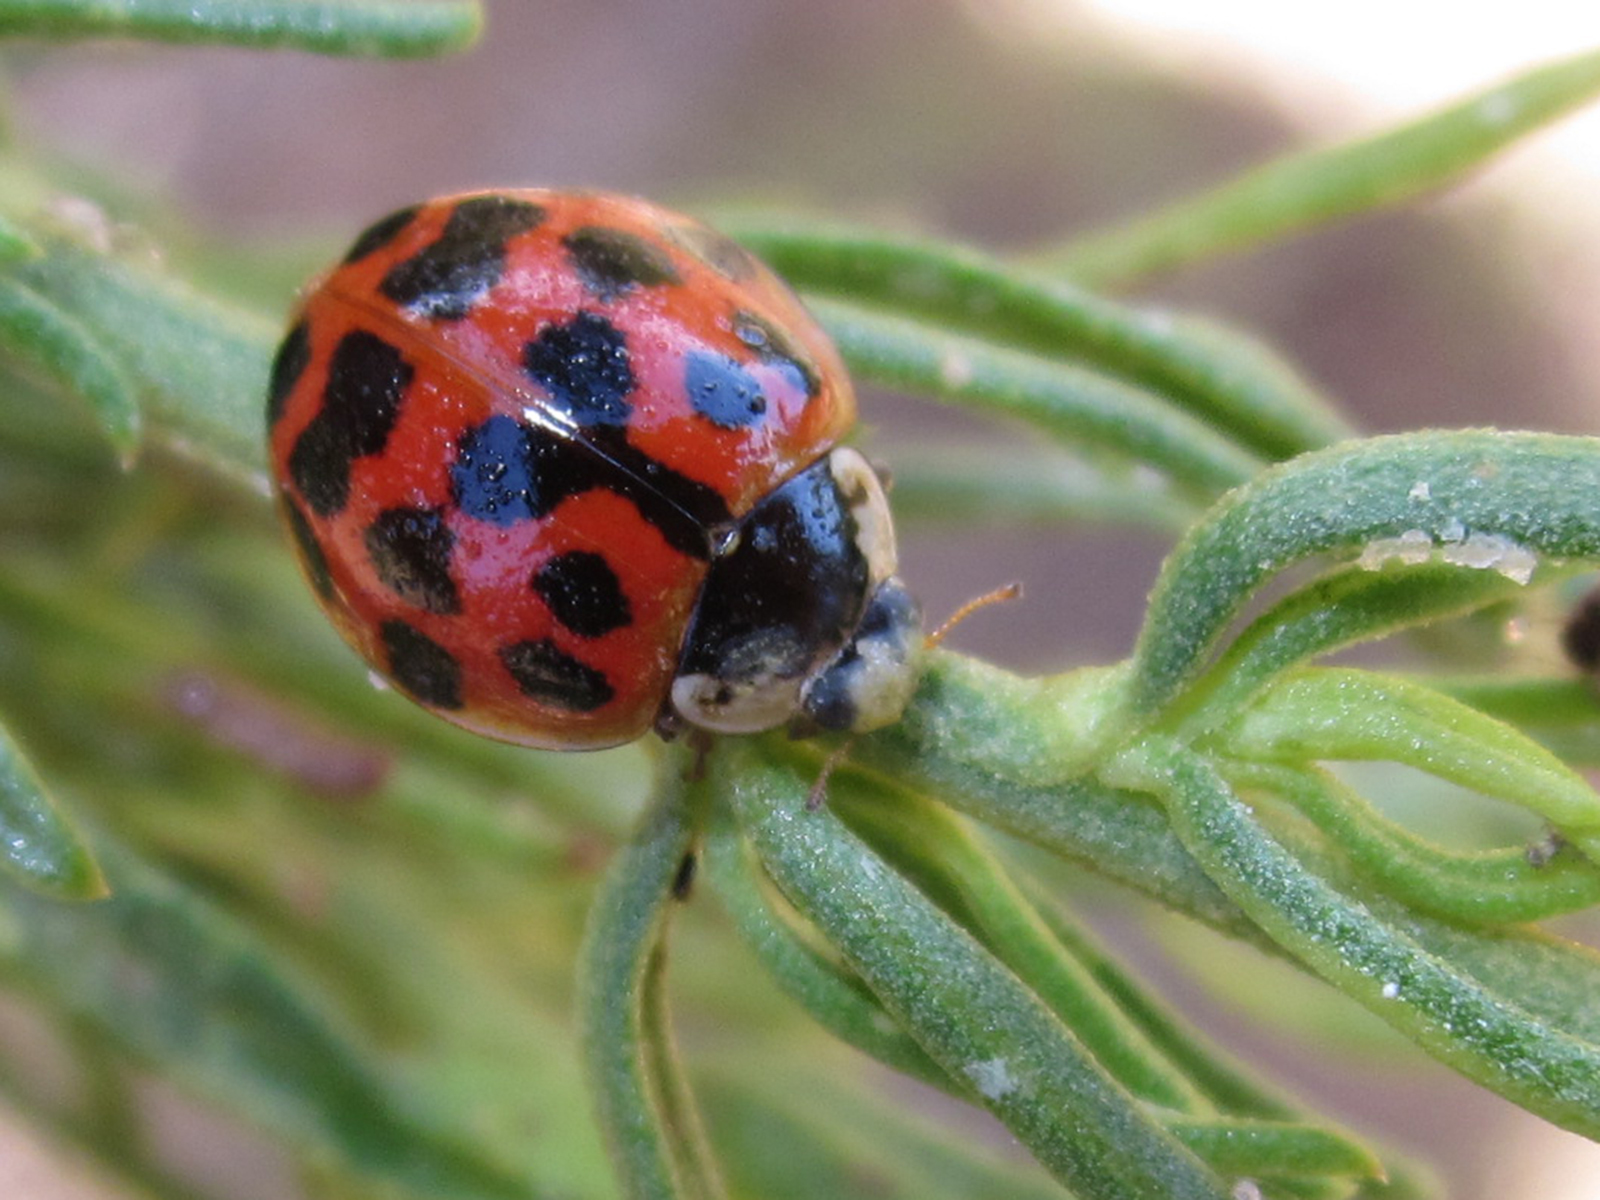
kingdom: Animalia
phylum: Arthropoda
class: Insecta
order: Coleoptera
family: Coccinellidae
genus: Harmonia
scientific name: Harmonia axyridis
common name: Harlequin ladybird
